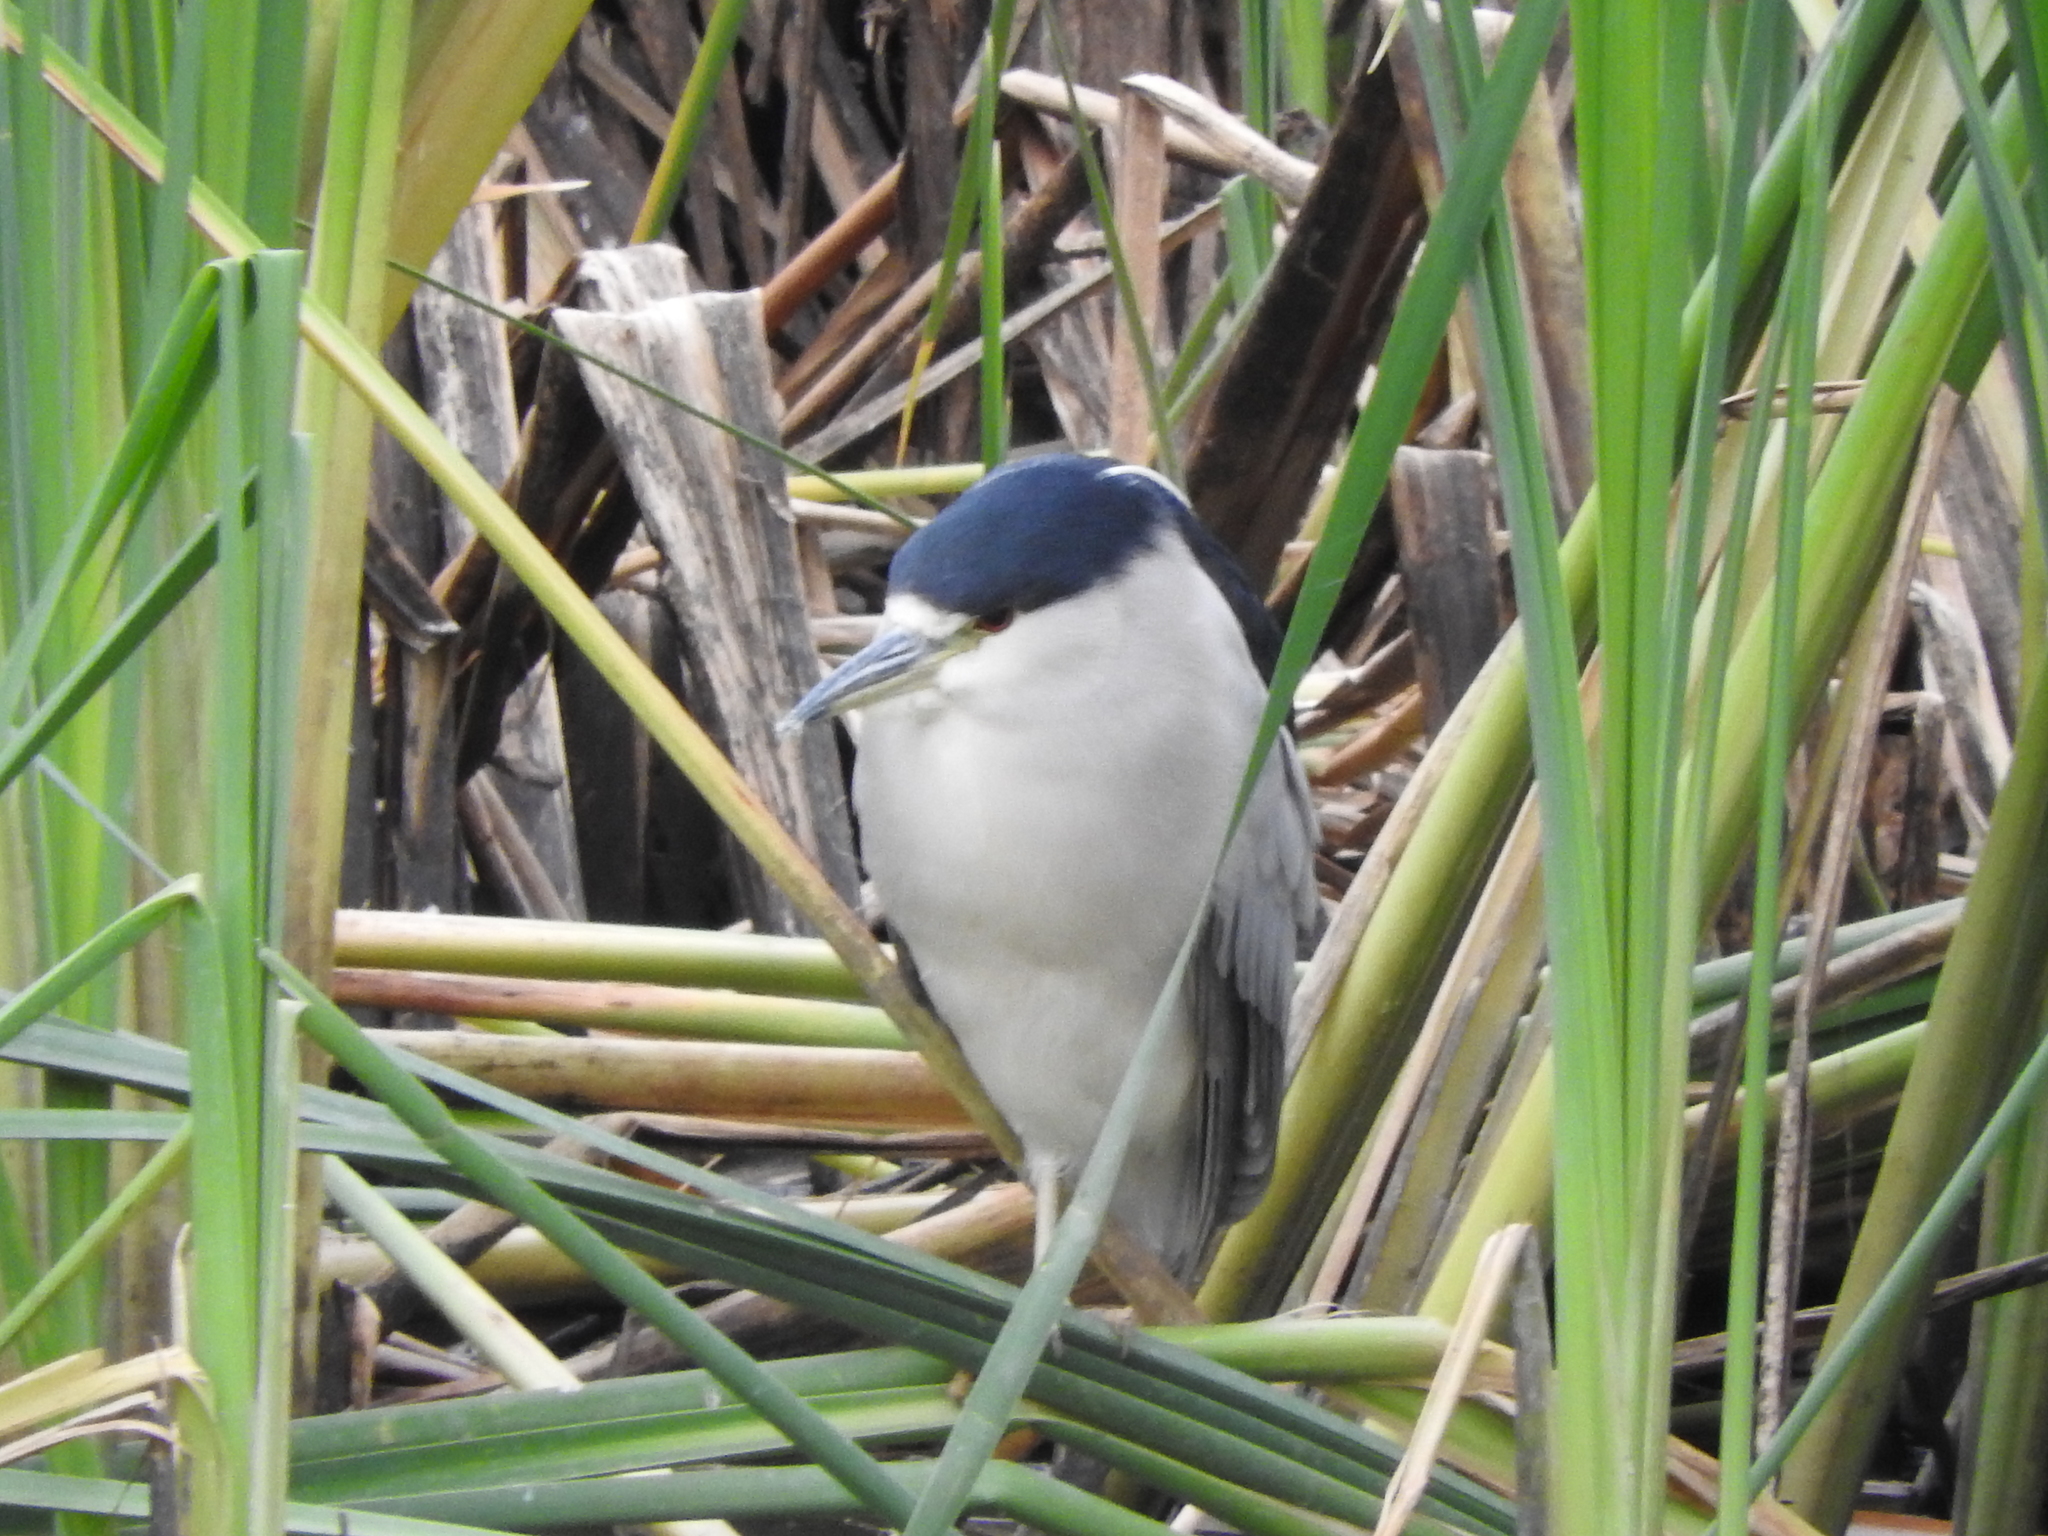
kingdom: Animalia
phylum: Chordata
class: Aves
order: Pelecaniformes
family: Ardeidae
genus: Nycticorax
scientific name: Nycticorax nycticorax
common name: Black-crowned night heron
